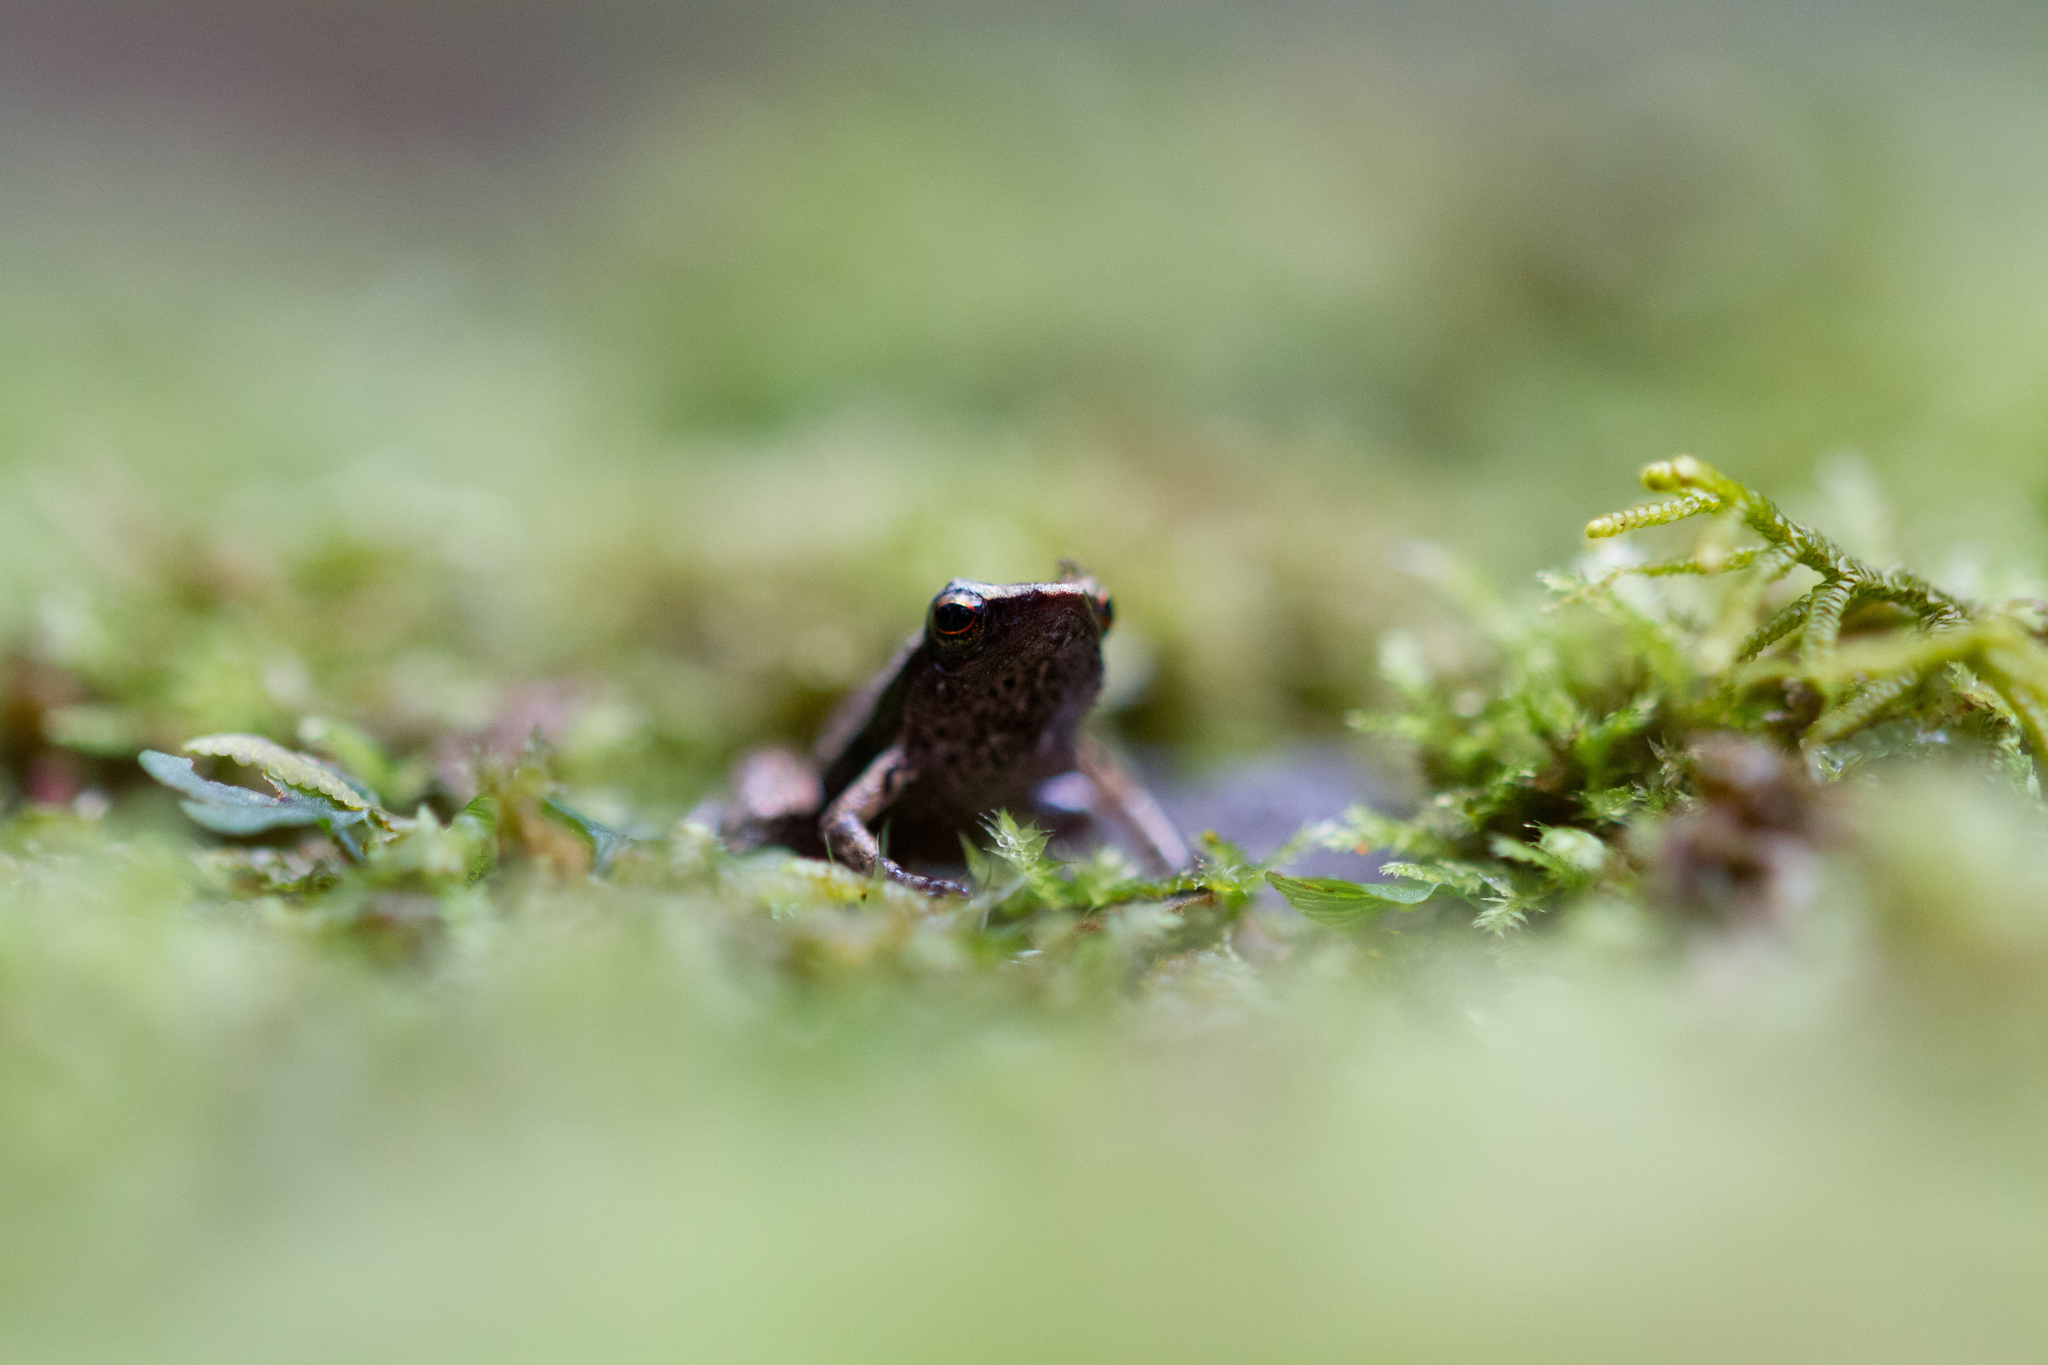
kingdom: Animalia
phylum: Chordata
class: Amphibia
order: Anura
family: Sooglossidae
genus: Sechellophryne
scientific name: Sechellophryne gardineri
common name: Gardiner's seychelles frog
